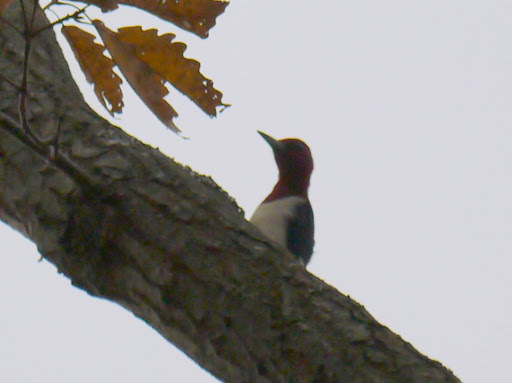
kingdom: Animalia
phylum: Chordata
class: Aves
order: Piciformes
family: Picidae
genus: Melanerpes
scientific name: Melanerpes erythrocephalus
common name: Red-headed woodpecker
